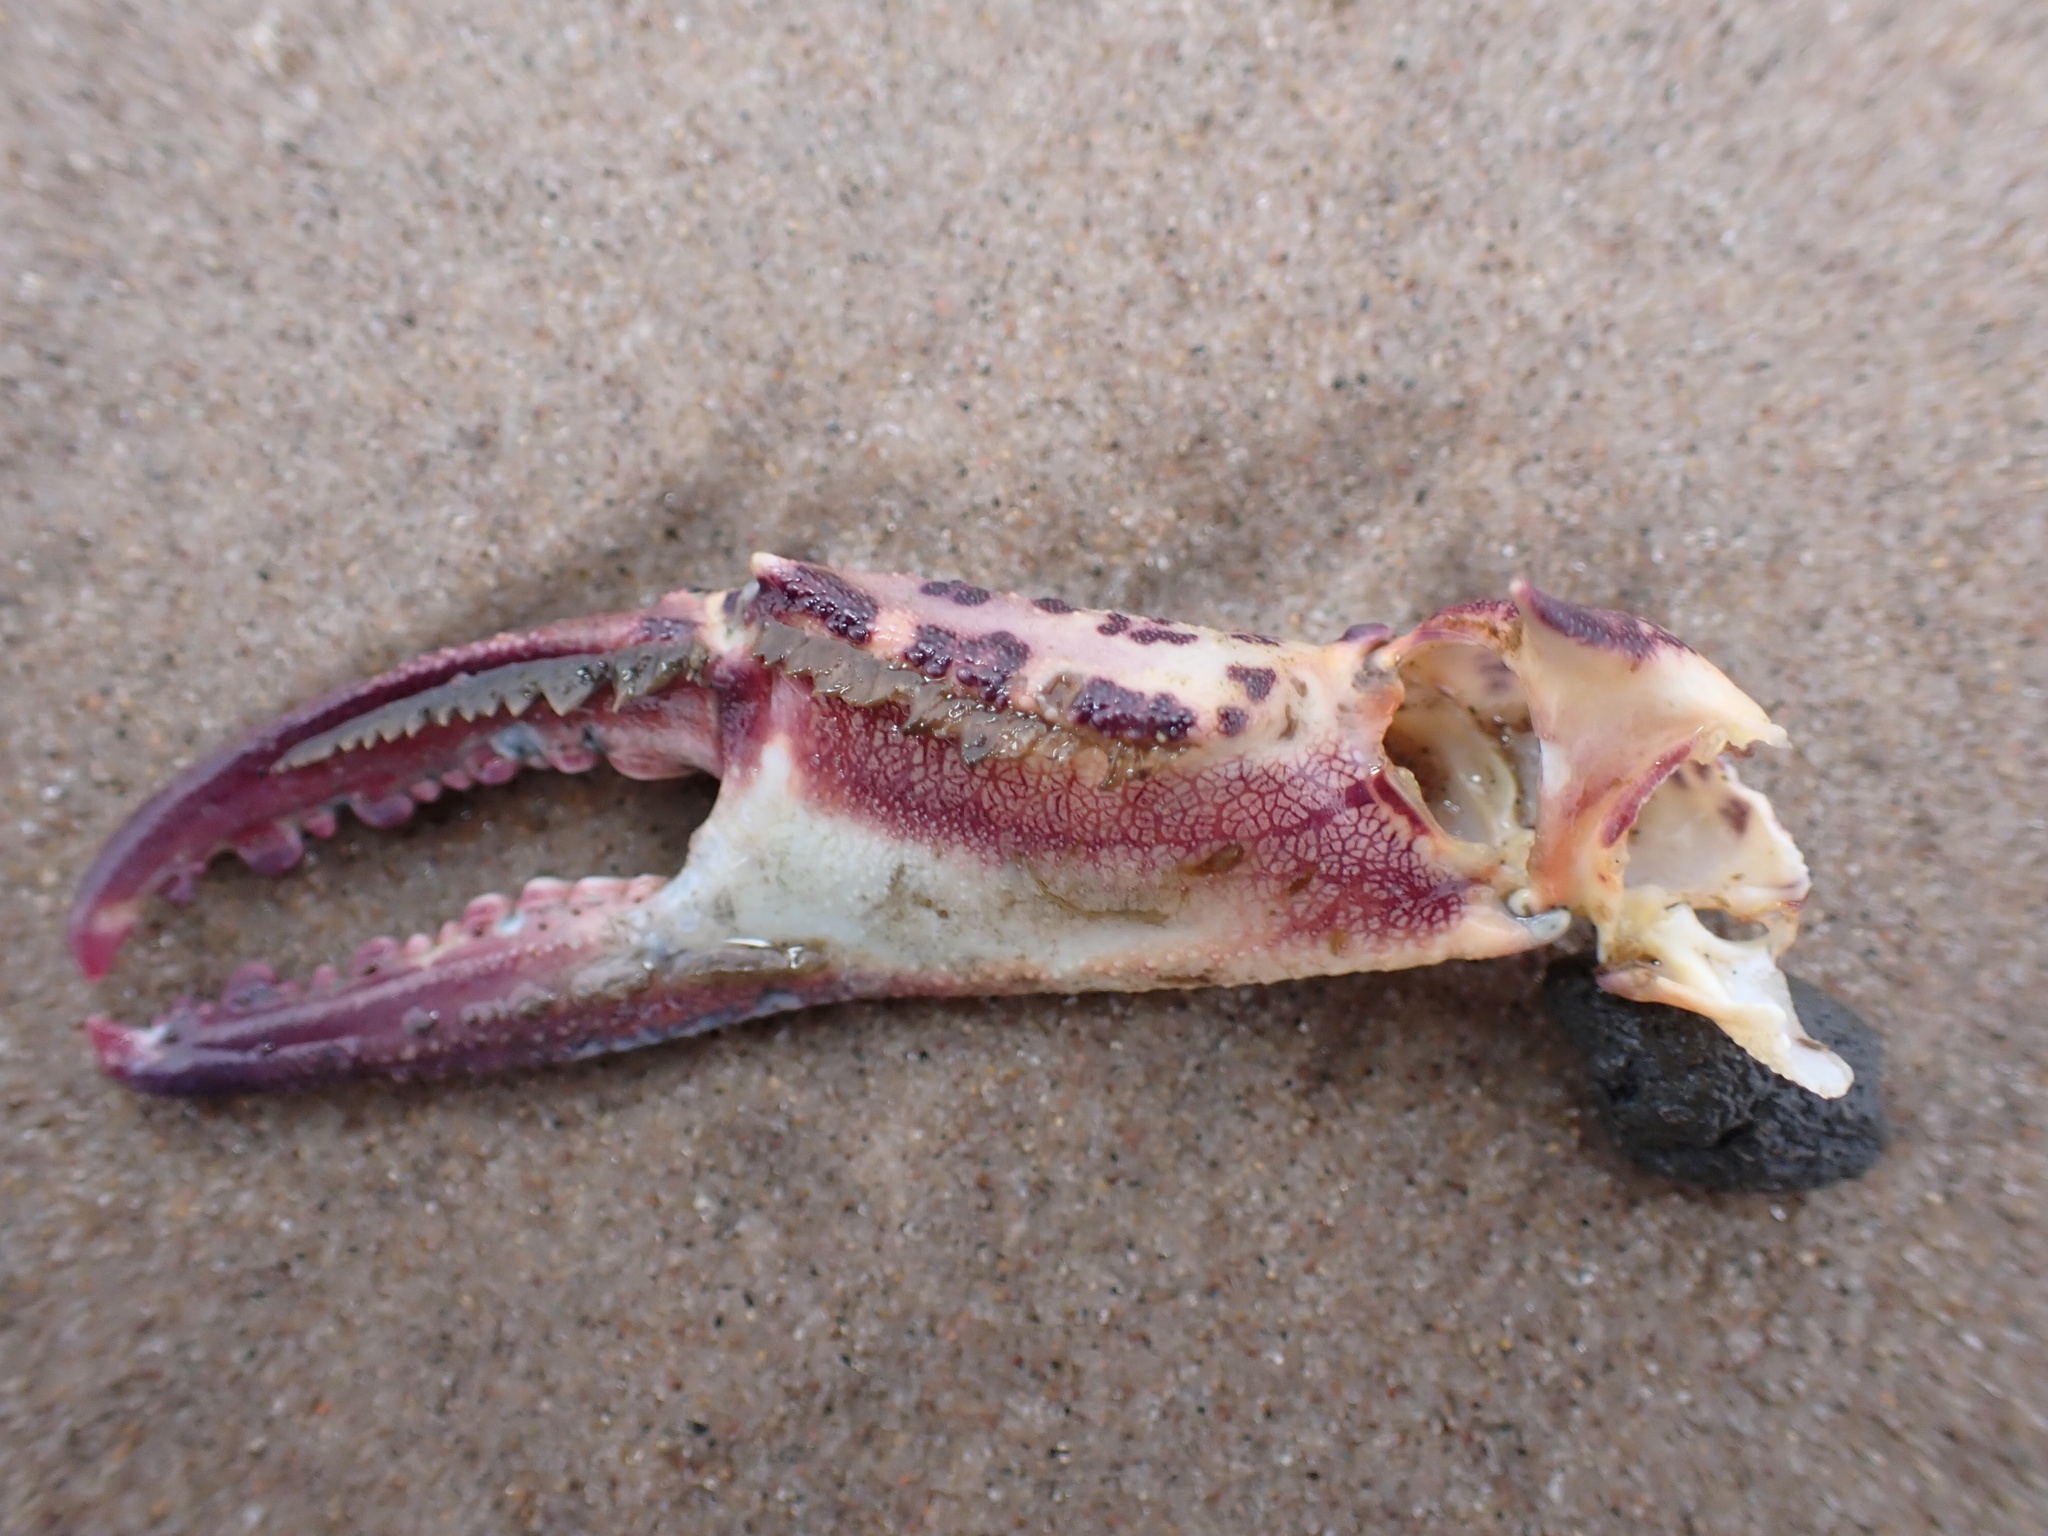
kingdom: Animalia
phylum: Arthropoda
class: Malacostraca
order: Decapoda
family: Ovalipidae
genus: Ovalipes
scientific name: Ovalipes ocellatus
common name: Lady crab
